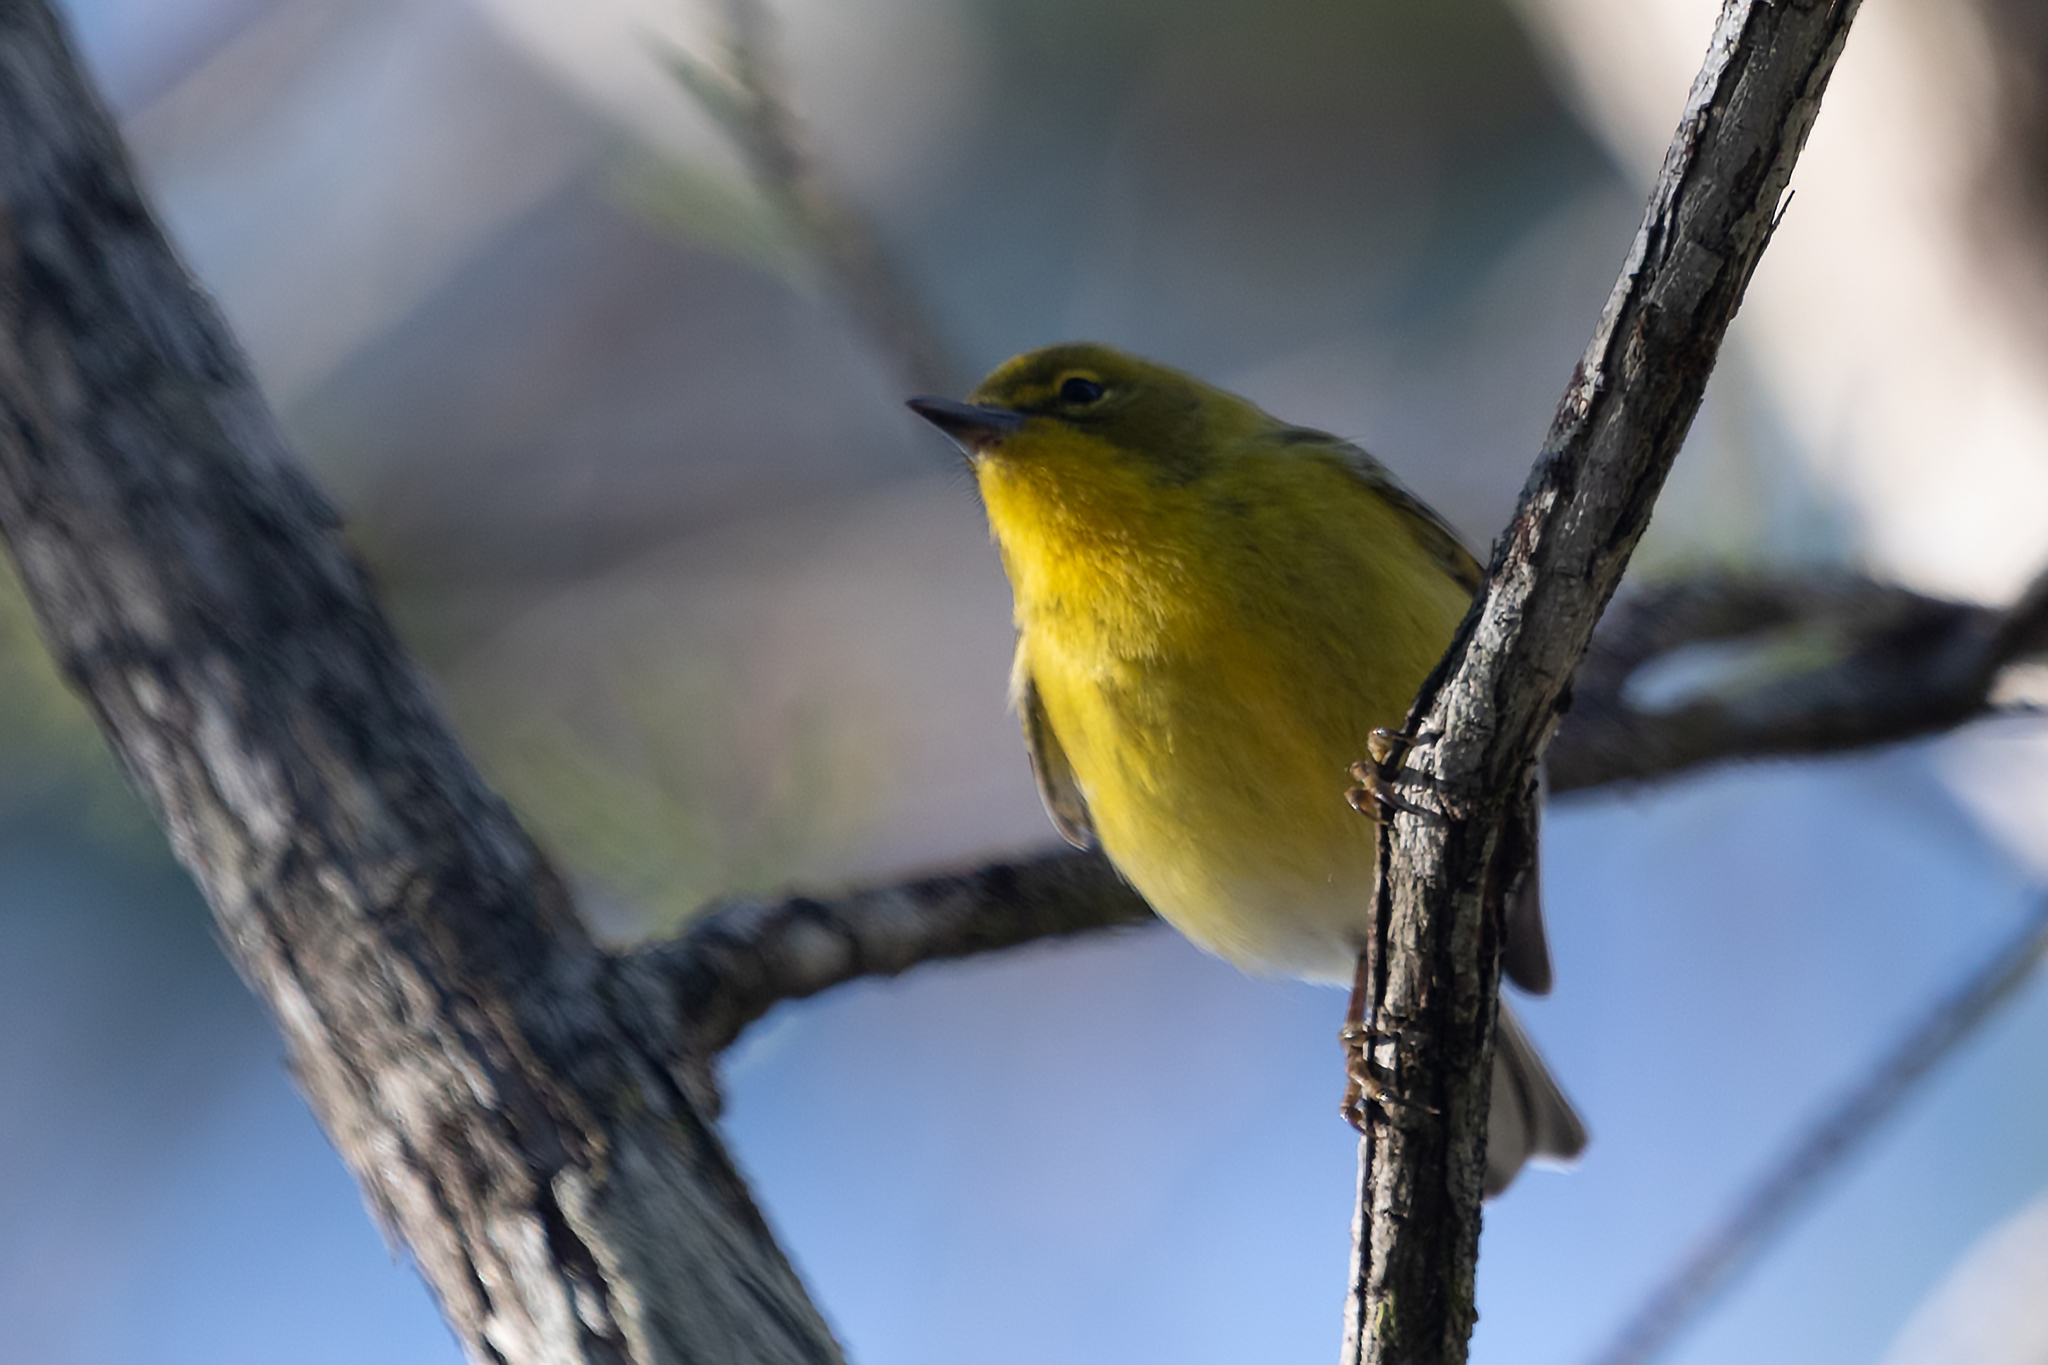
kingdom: Animalia
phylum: Chordata
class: Aves
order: Passeriformes
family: Parulidae
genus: Setophaga
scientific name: Setophaga pinus
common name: Pine warbler
